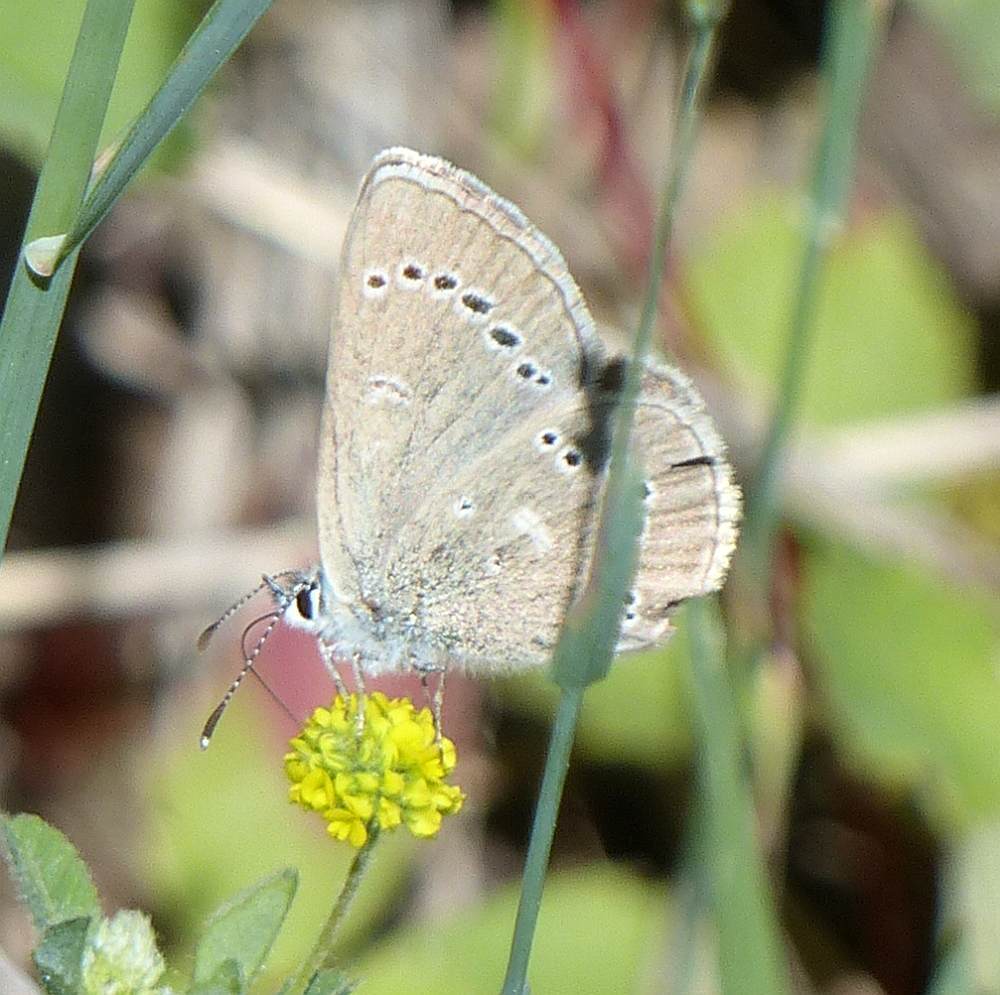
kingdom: Animalia
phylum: Arthropoda
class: Insecta
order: Lepidoptera
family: Lycaenidae
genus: Glaucopsyche
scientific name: Glaucopsyche lygdamus
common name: Silvery blue
